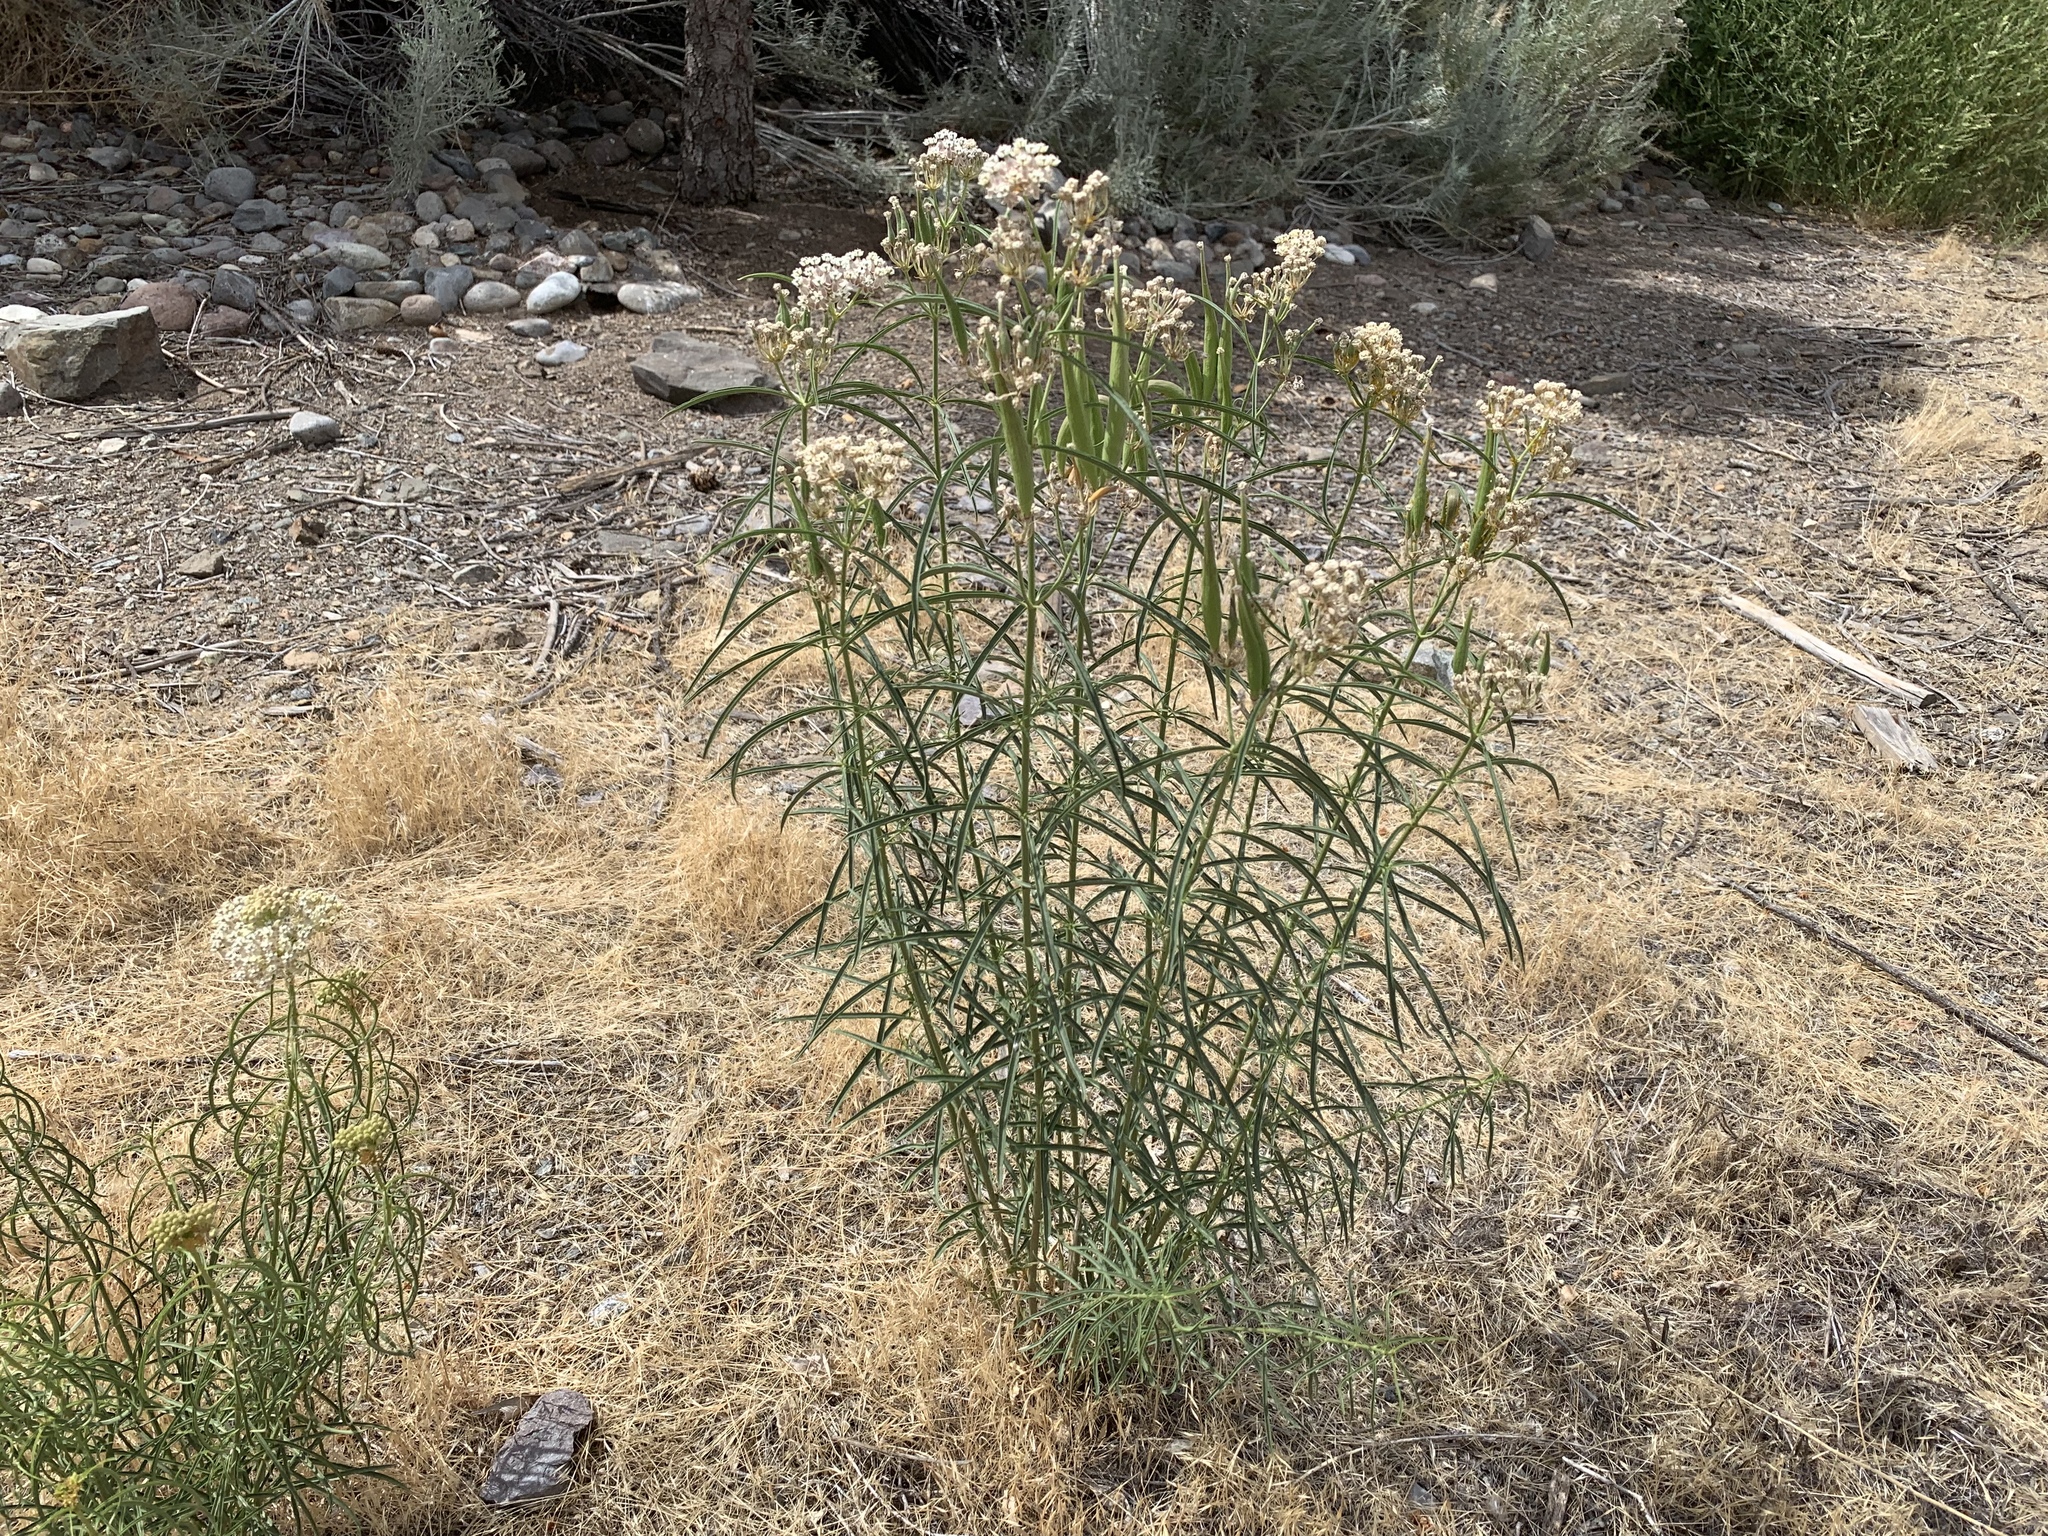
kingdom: Plantae
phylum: Tracheophyta
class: Magnoliopsida
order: Gentianales
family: Apocynaceae
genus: Asclepias
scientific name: Asclepias fascicularis
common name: Mexican milkweed
